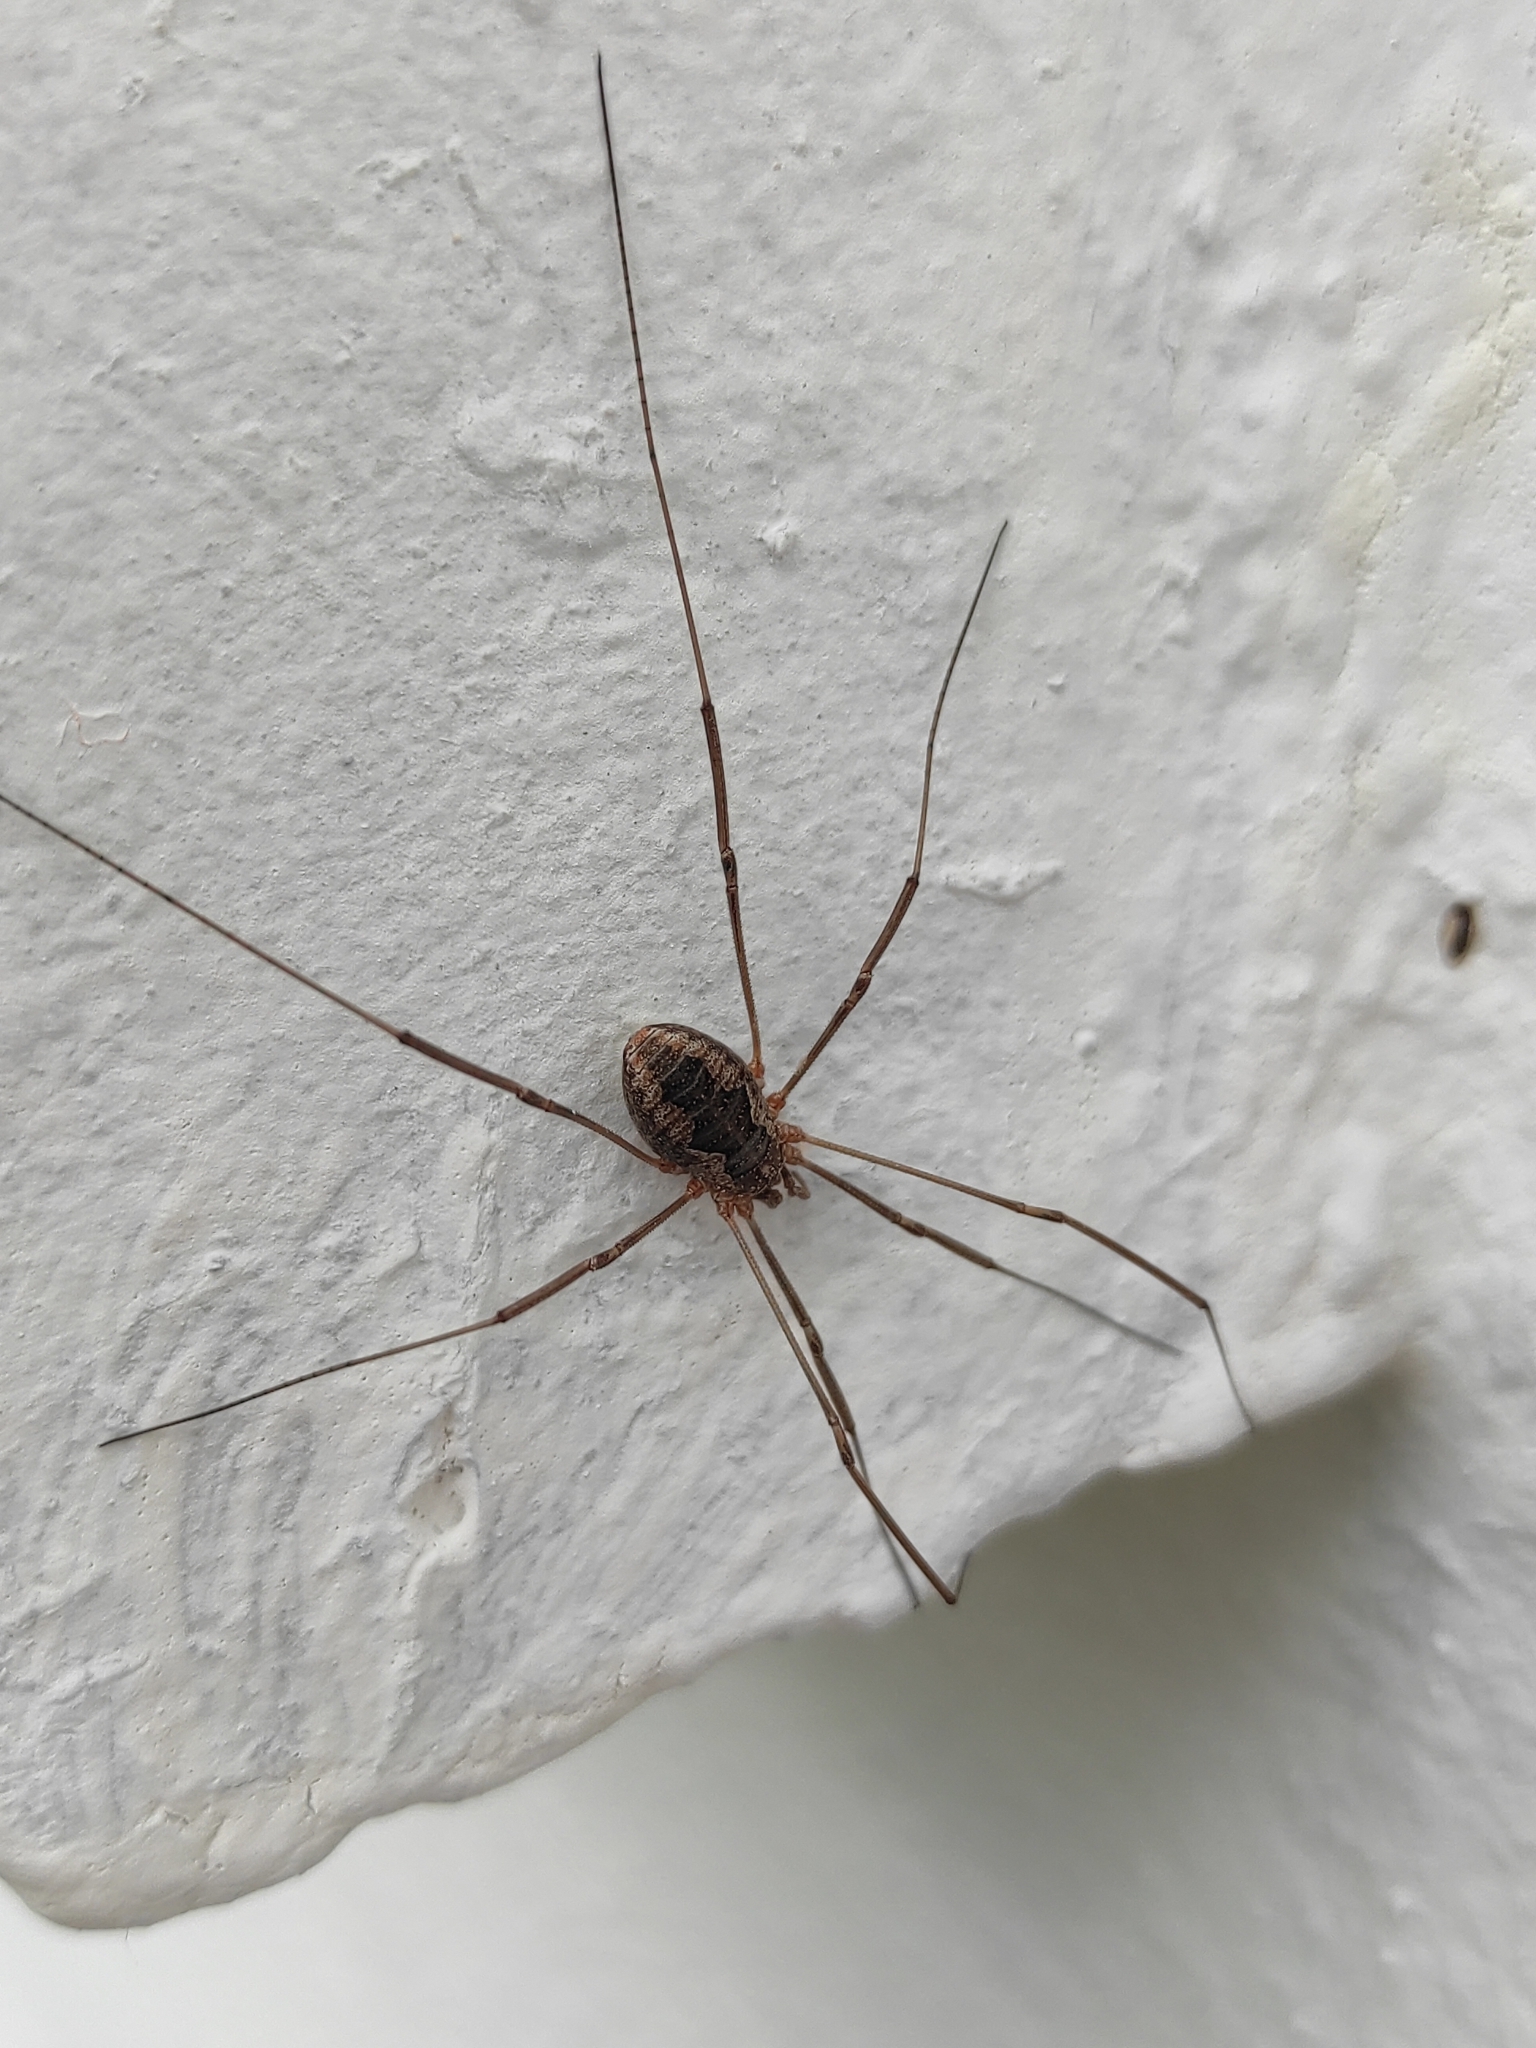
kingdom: Animalia
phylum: Arthropoda
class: Arachnida
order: Opiliones
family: Phalangiidae
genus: Phalangium
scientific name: Phalangium opilio
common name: Daddy longleg
